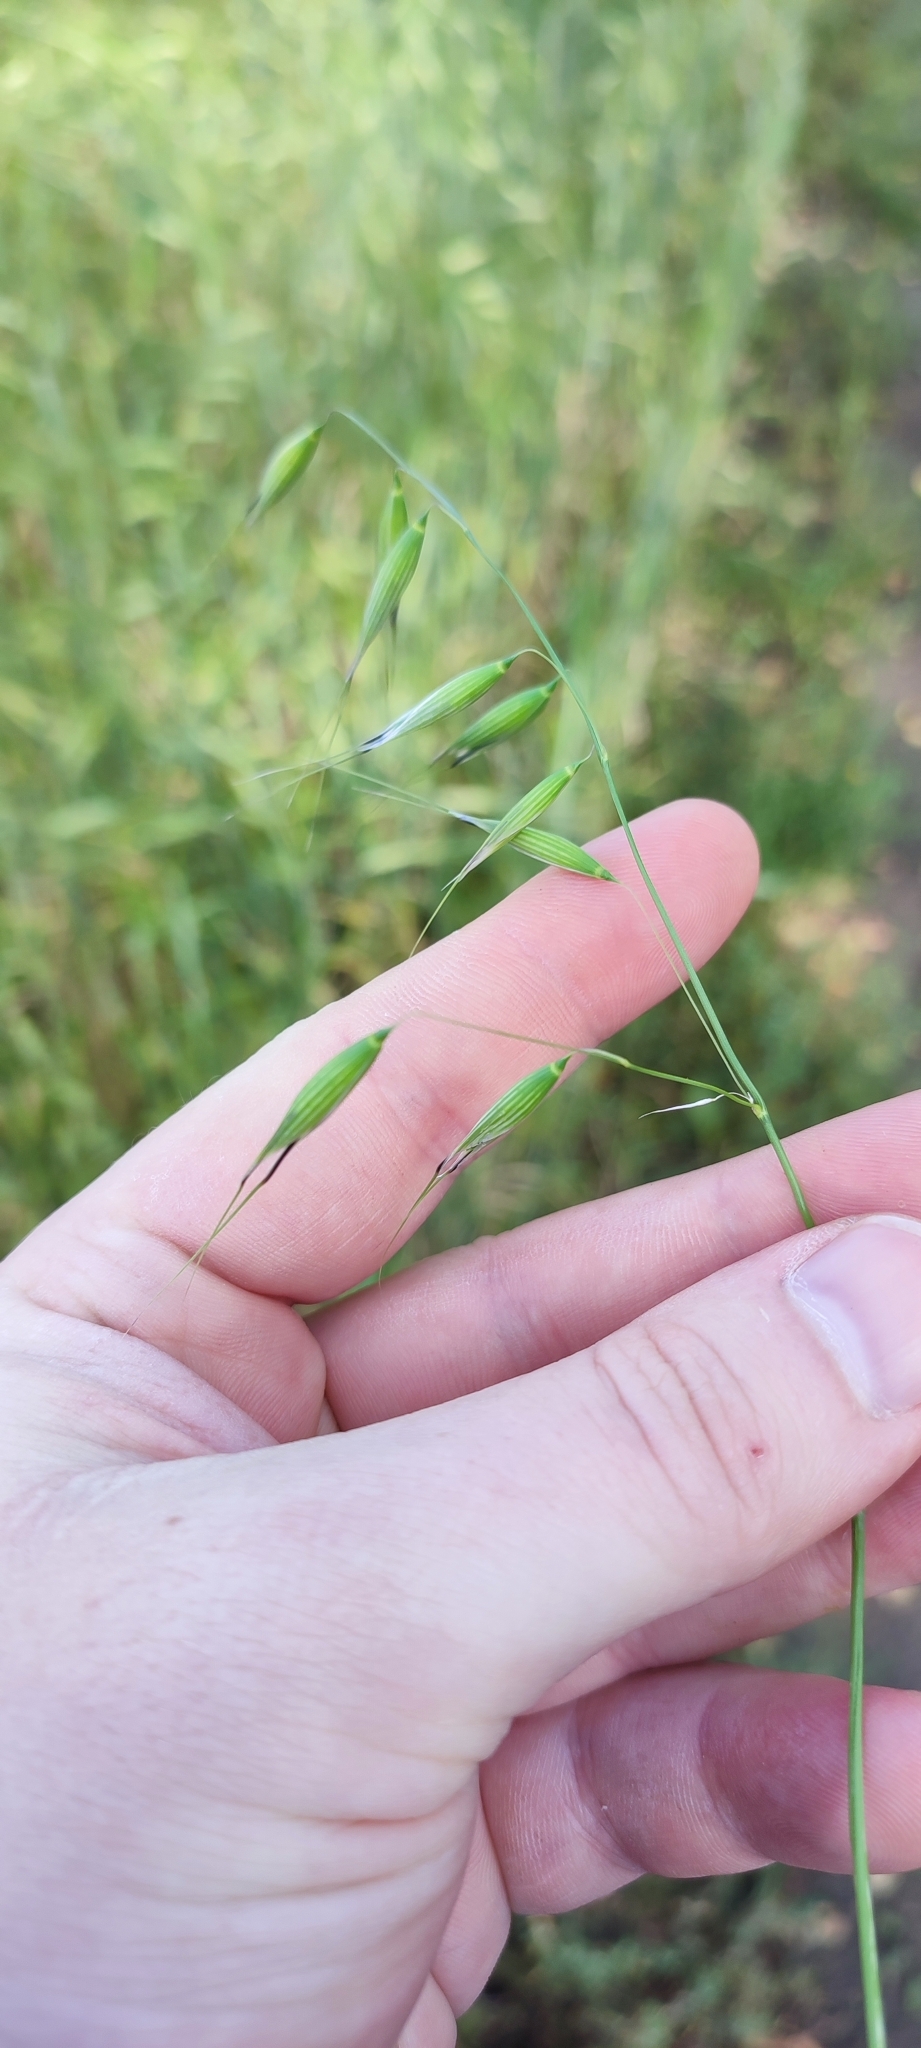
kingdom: Plantae
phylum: Tracheophyta
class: Liliopsida
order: Poales
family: Poaceae
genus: Avena
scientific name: Avena fatua
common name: Wild oat
